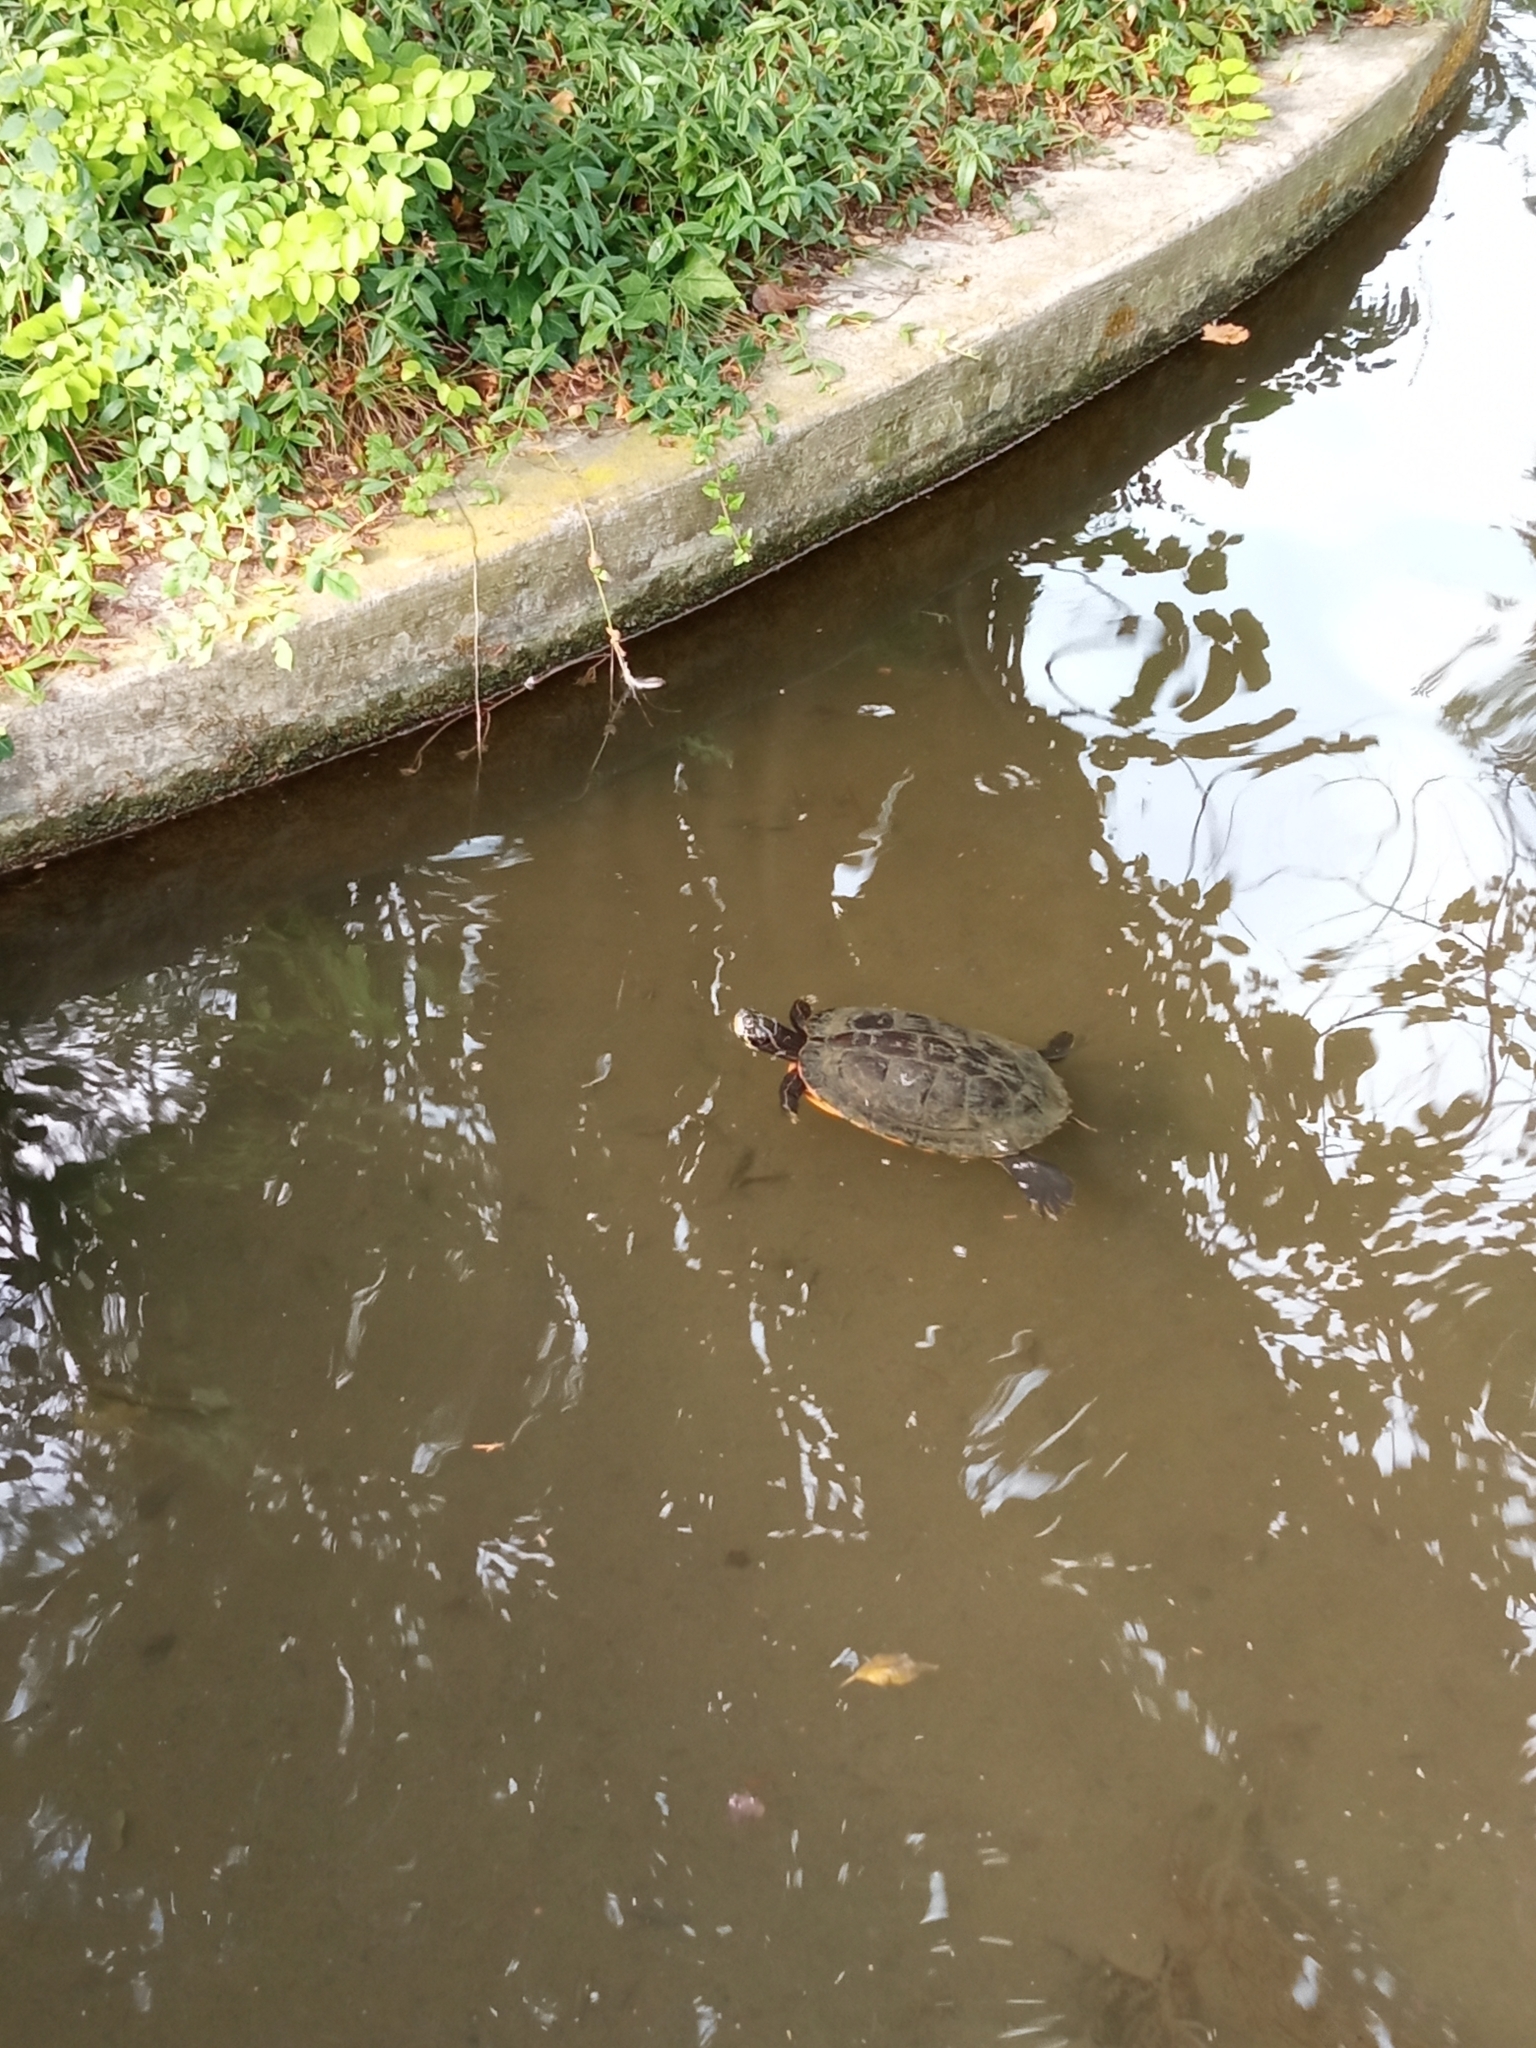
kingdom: Animalia
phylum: Chordata
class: Testudines
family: Emydidae
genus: Trachemys
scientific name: Trachemys scripta
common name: Slider
